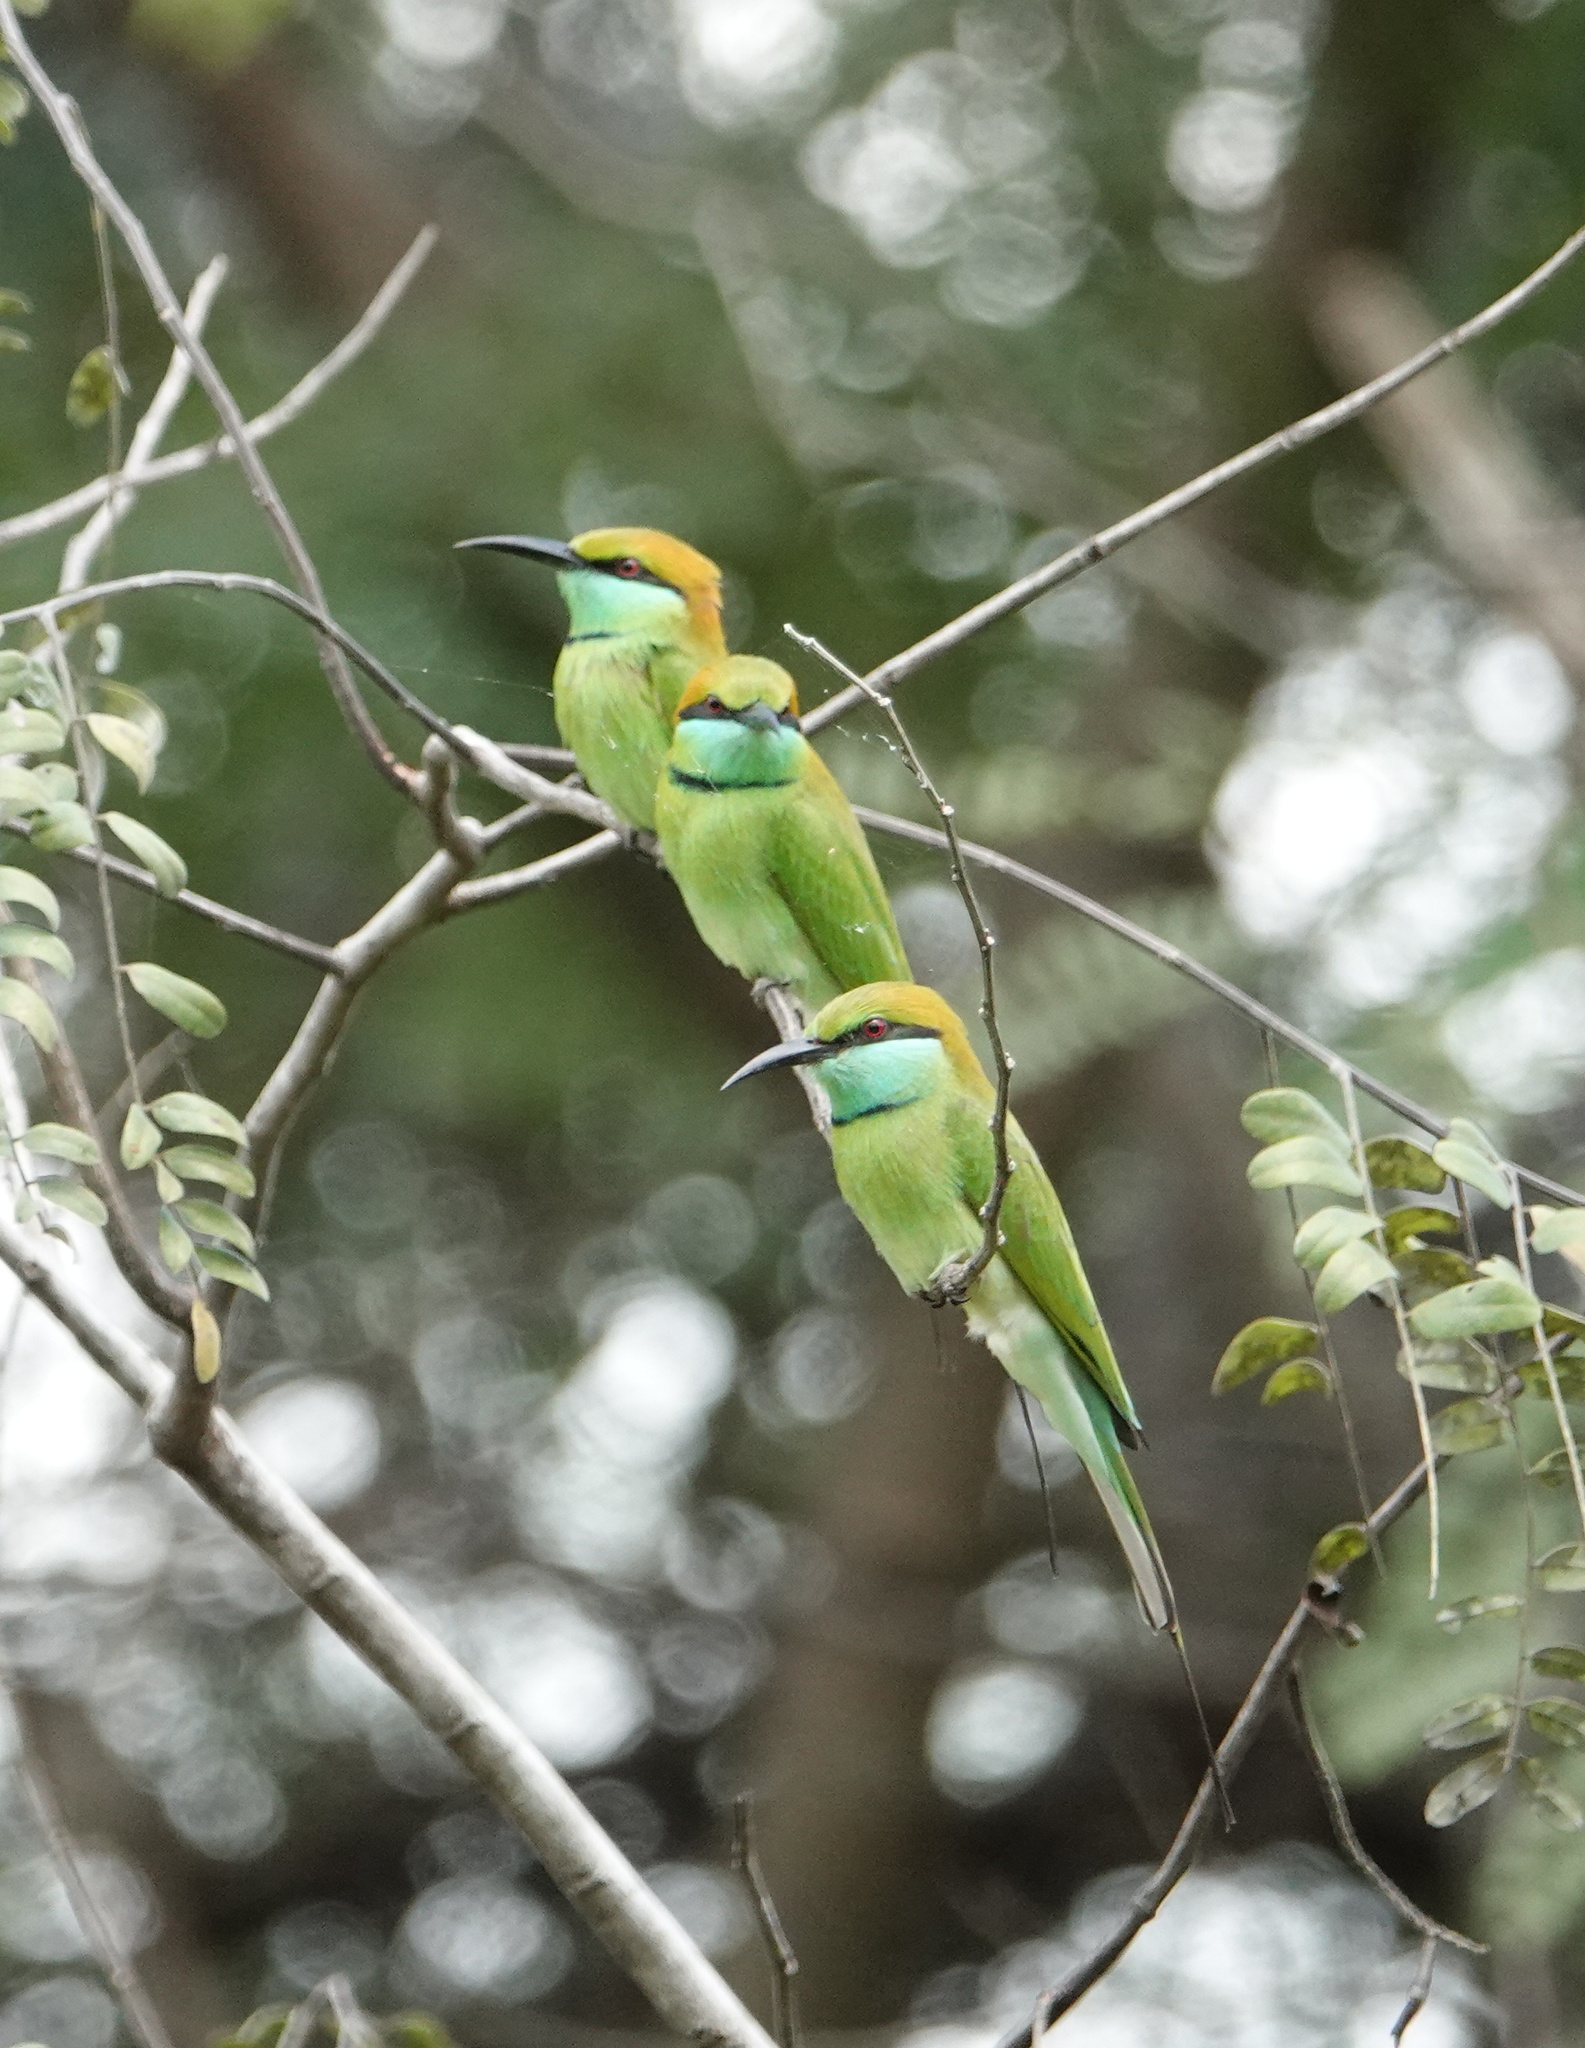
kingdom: Animalia
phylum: Chordata
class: Aves
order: Coraciiformes
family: Meropidae
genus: Merops
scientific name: Merops orientalis
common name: Green bee-eater
